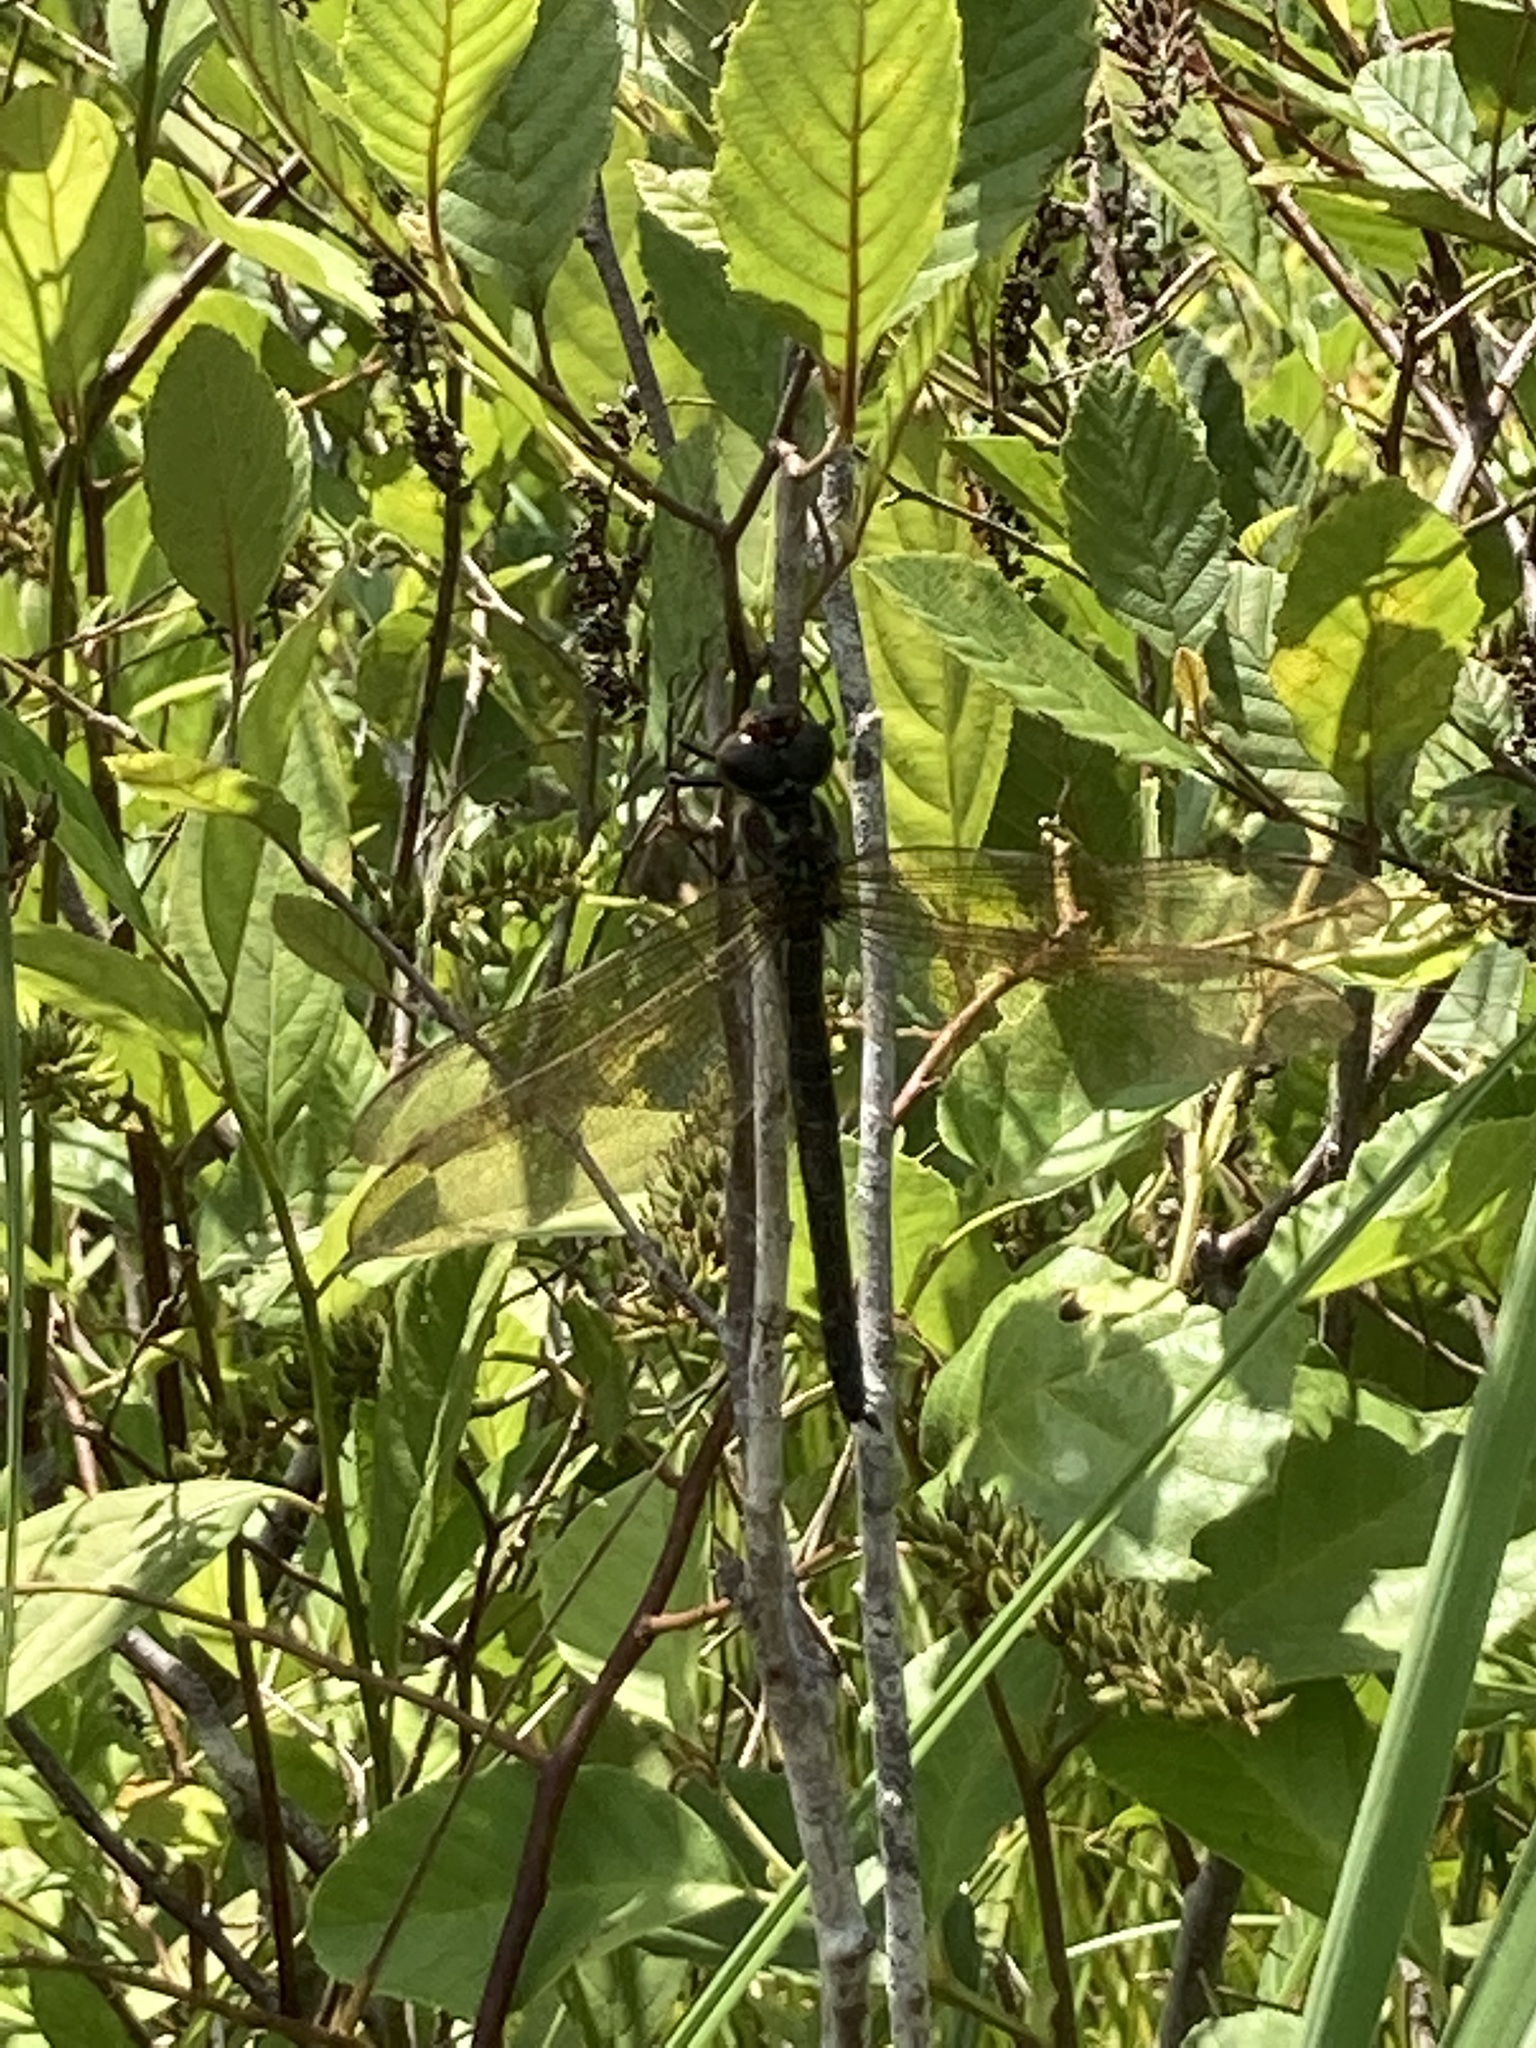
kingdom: Animalia
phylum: Arthropoda
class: Insecta
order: Odonata
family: Aeshnidae
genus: Epiaeschna
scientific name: Epiaeschna heros
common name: Swamp darner
